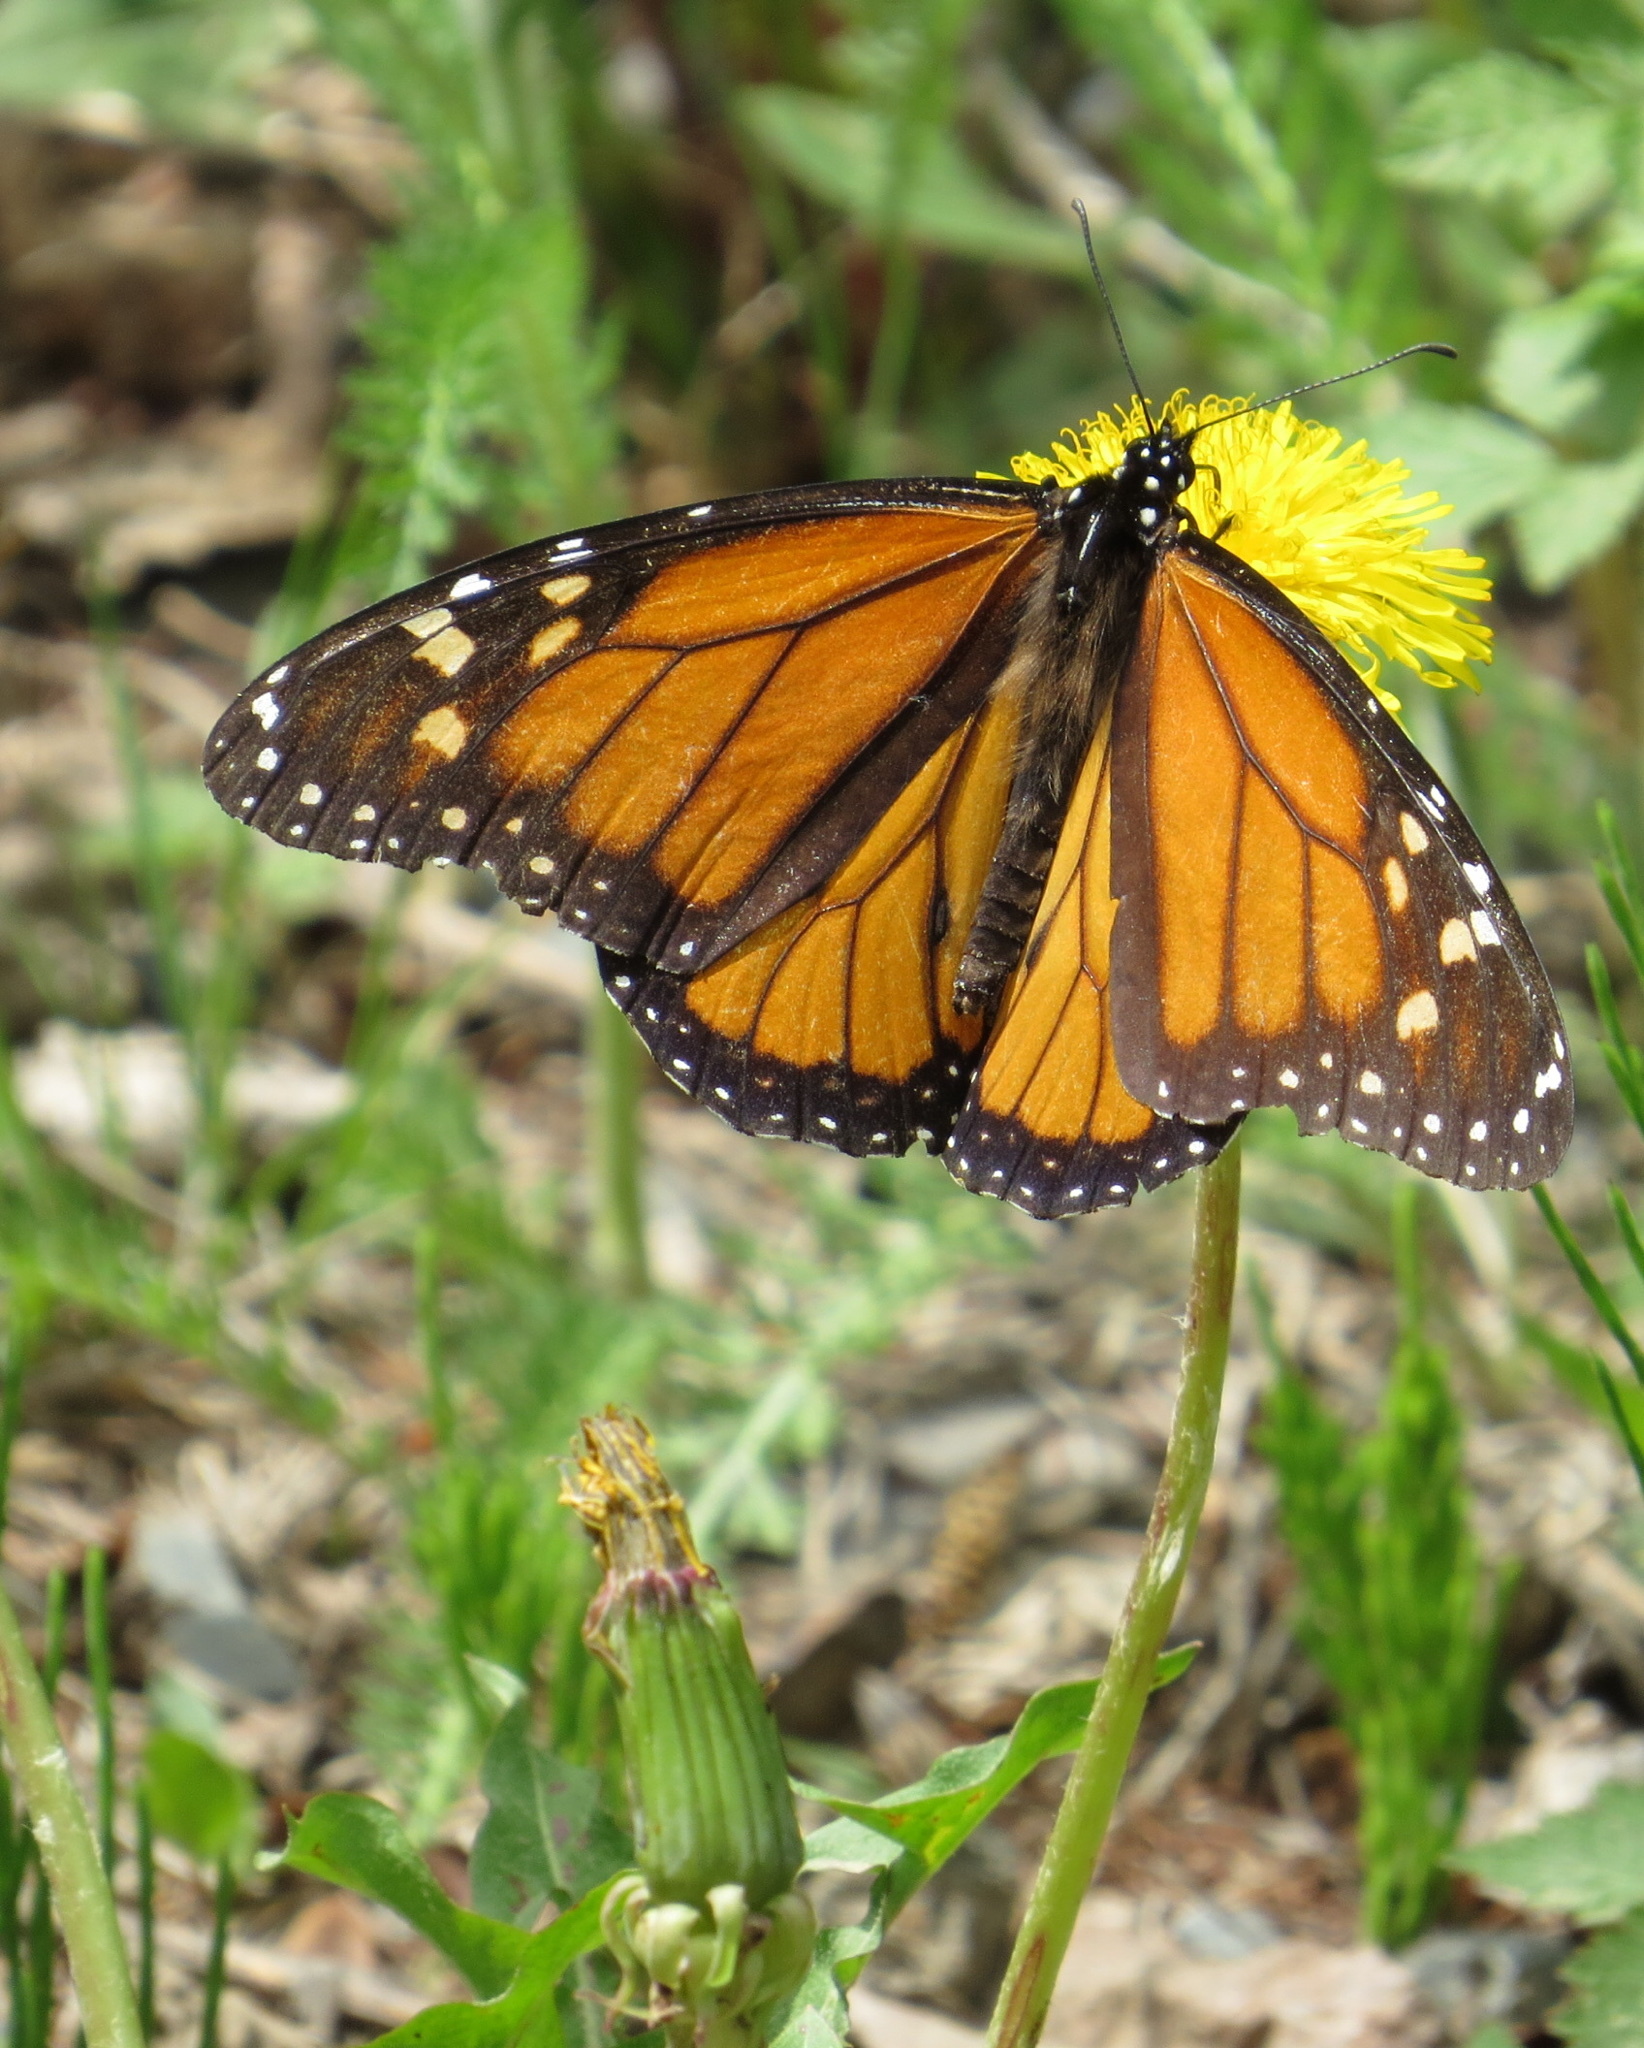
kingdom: Animalia
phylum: Arthropoda
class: Insecta
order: Lepidoptera
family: Nymphalidae
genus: Danaus
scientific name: Danaus plexippus
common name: Monarch
